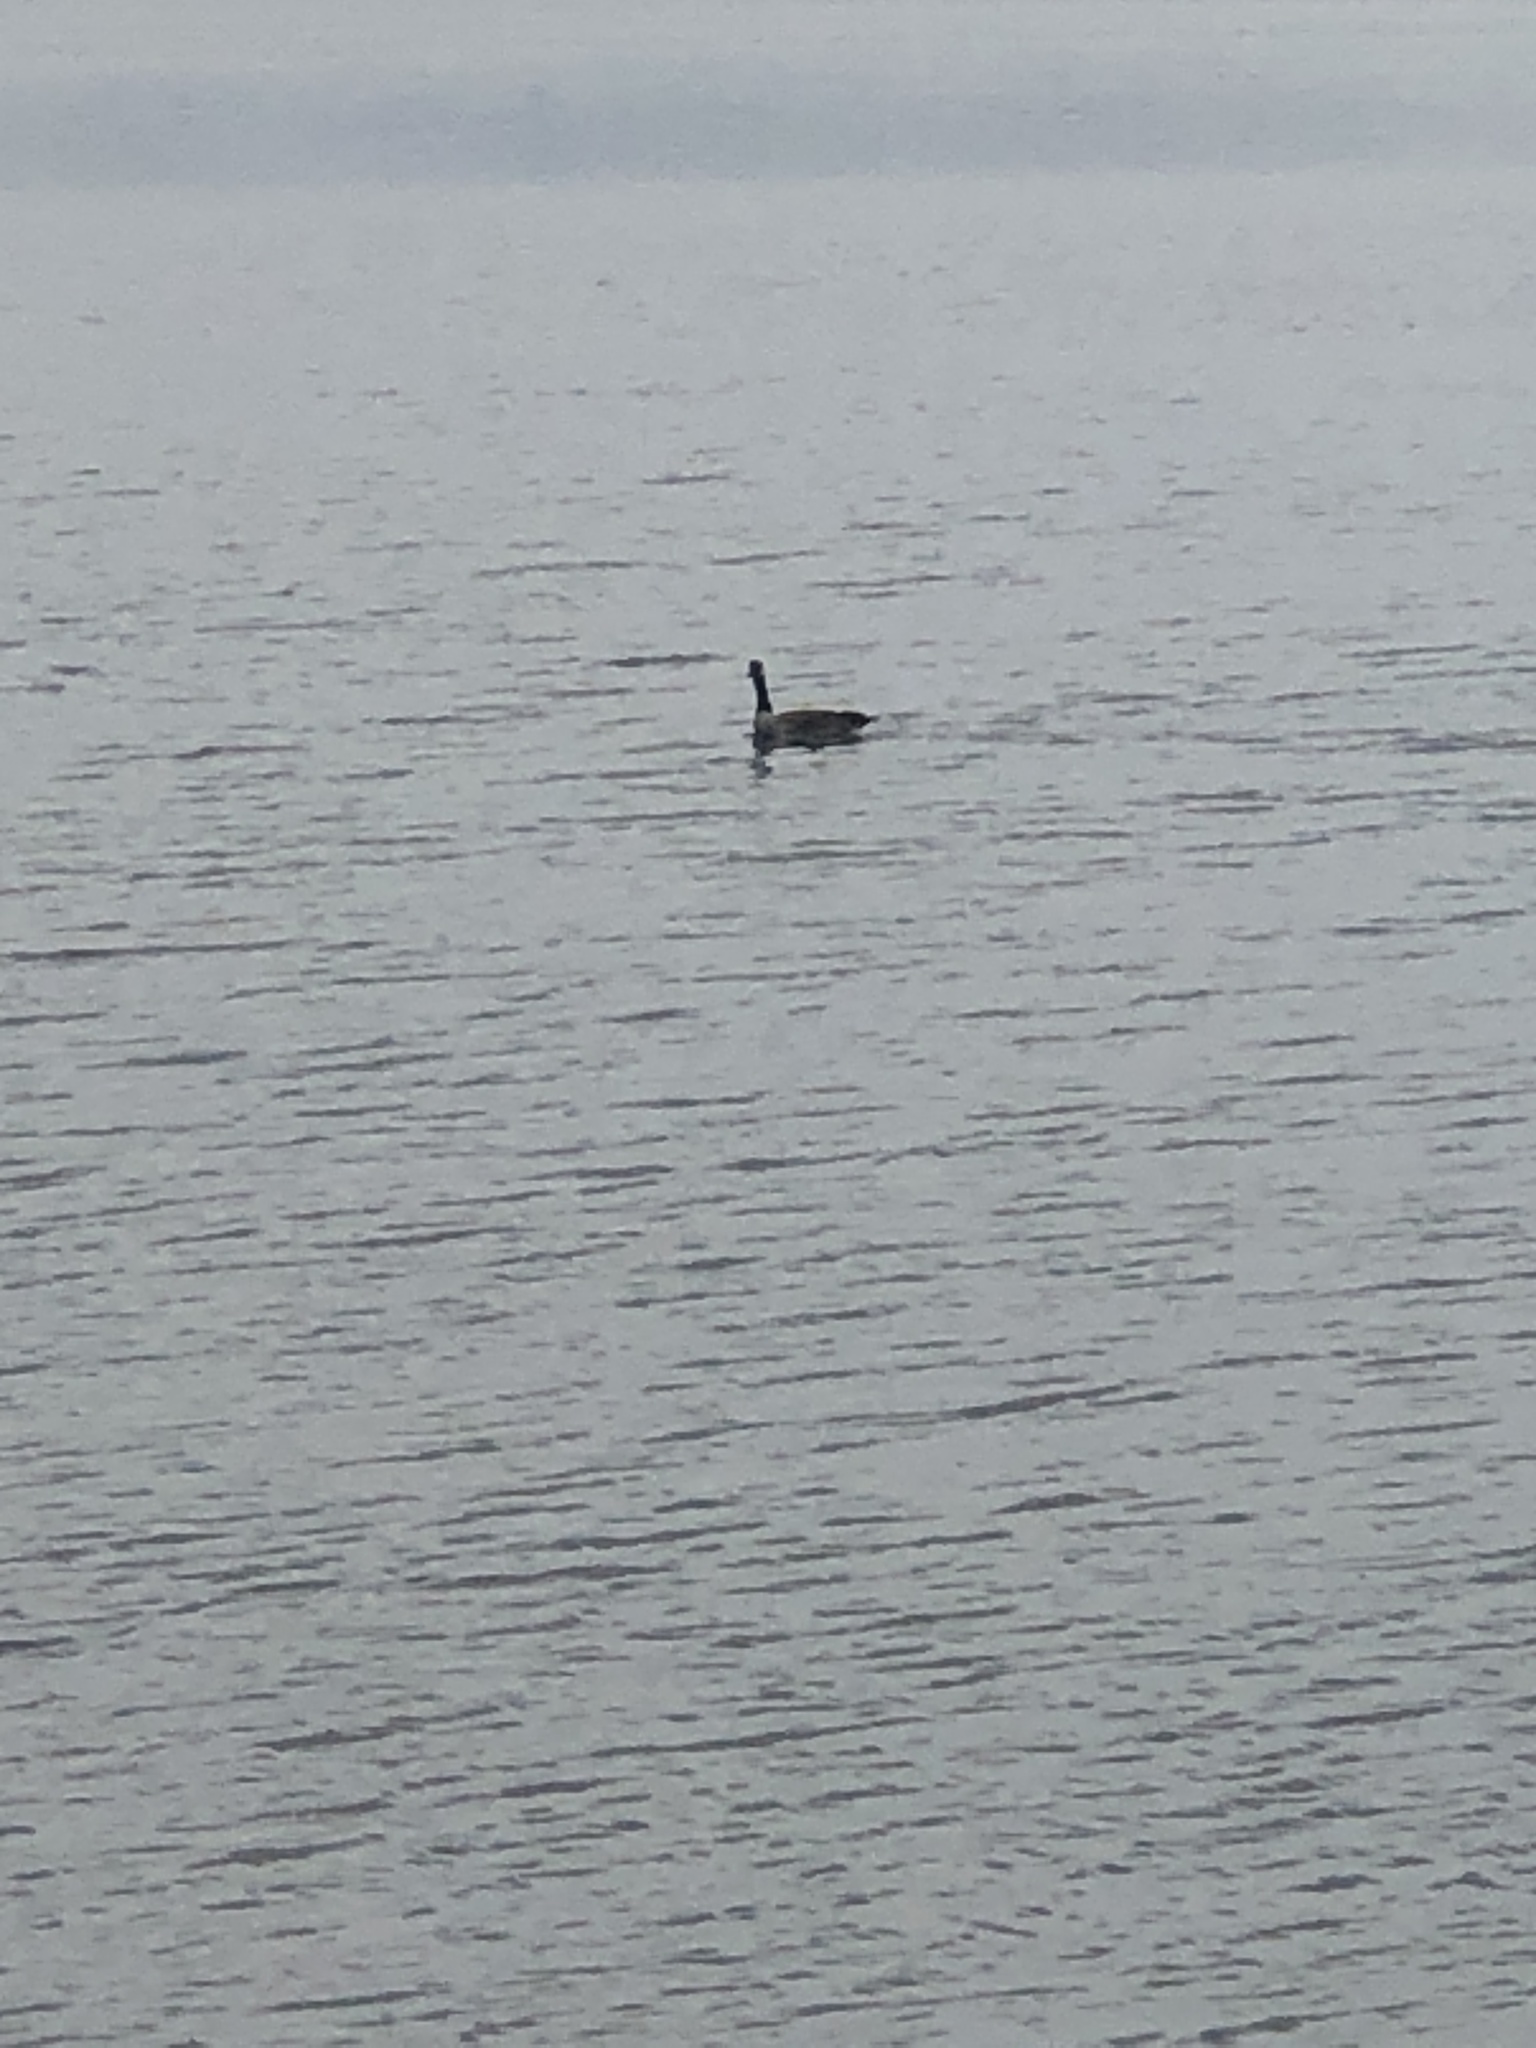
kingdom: Animalia
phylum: Chordata
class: Aves
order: Anseriformes
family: Anatidae
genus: Branta
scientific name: Branta canadensis
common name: Canada goose
